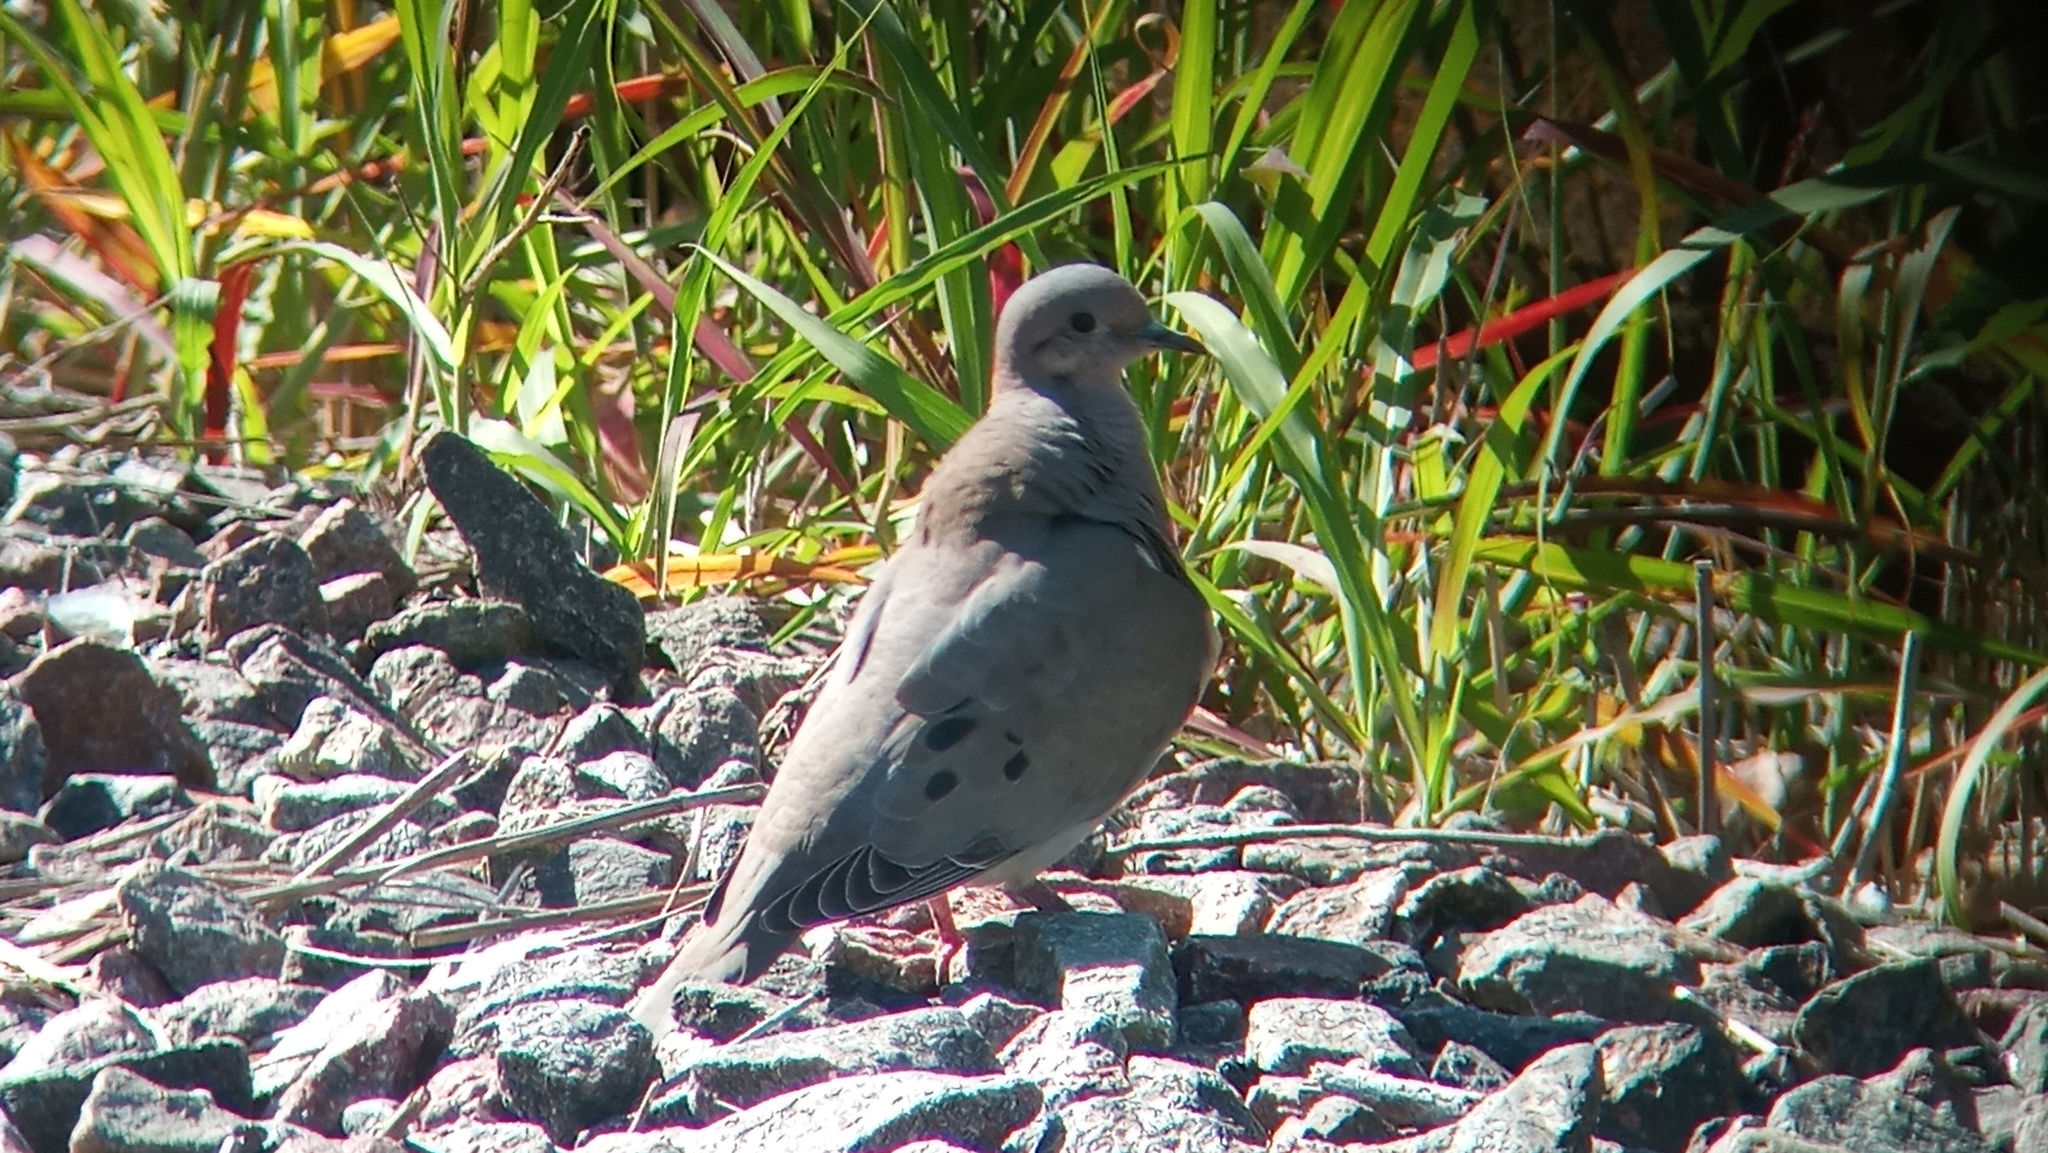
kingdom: Animalia
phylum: Chordata
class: Aves
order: Columbiformes
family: Columbidae
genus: Zenaida
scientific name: Zenaida auriculata
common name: Eared dove
